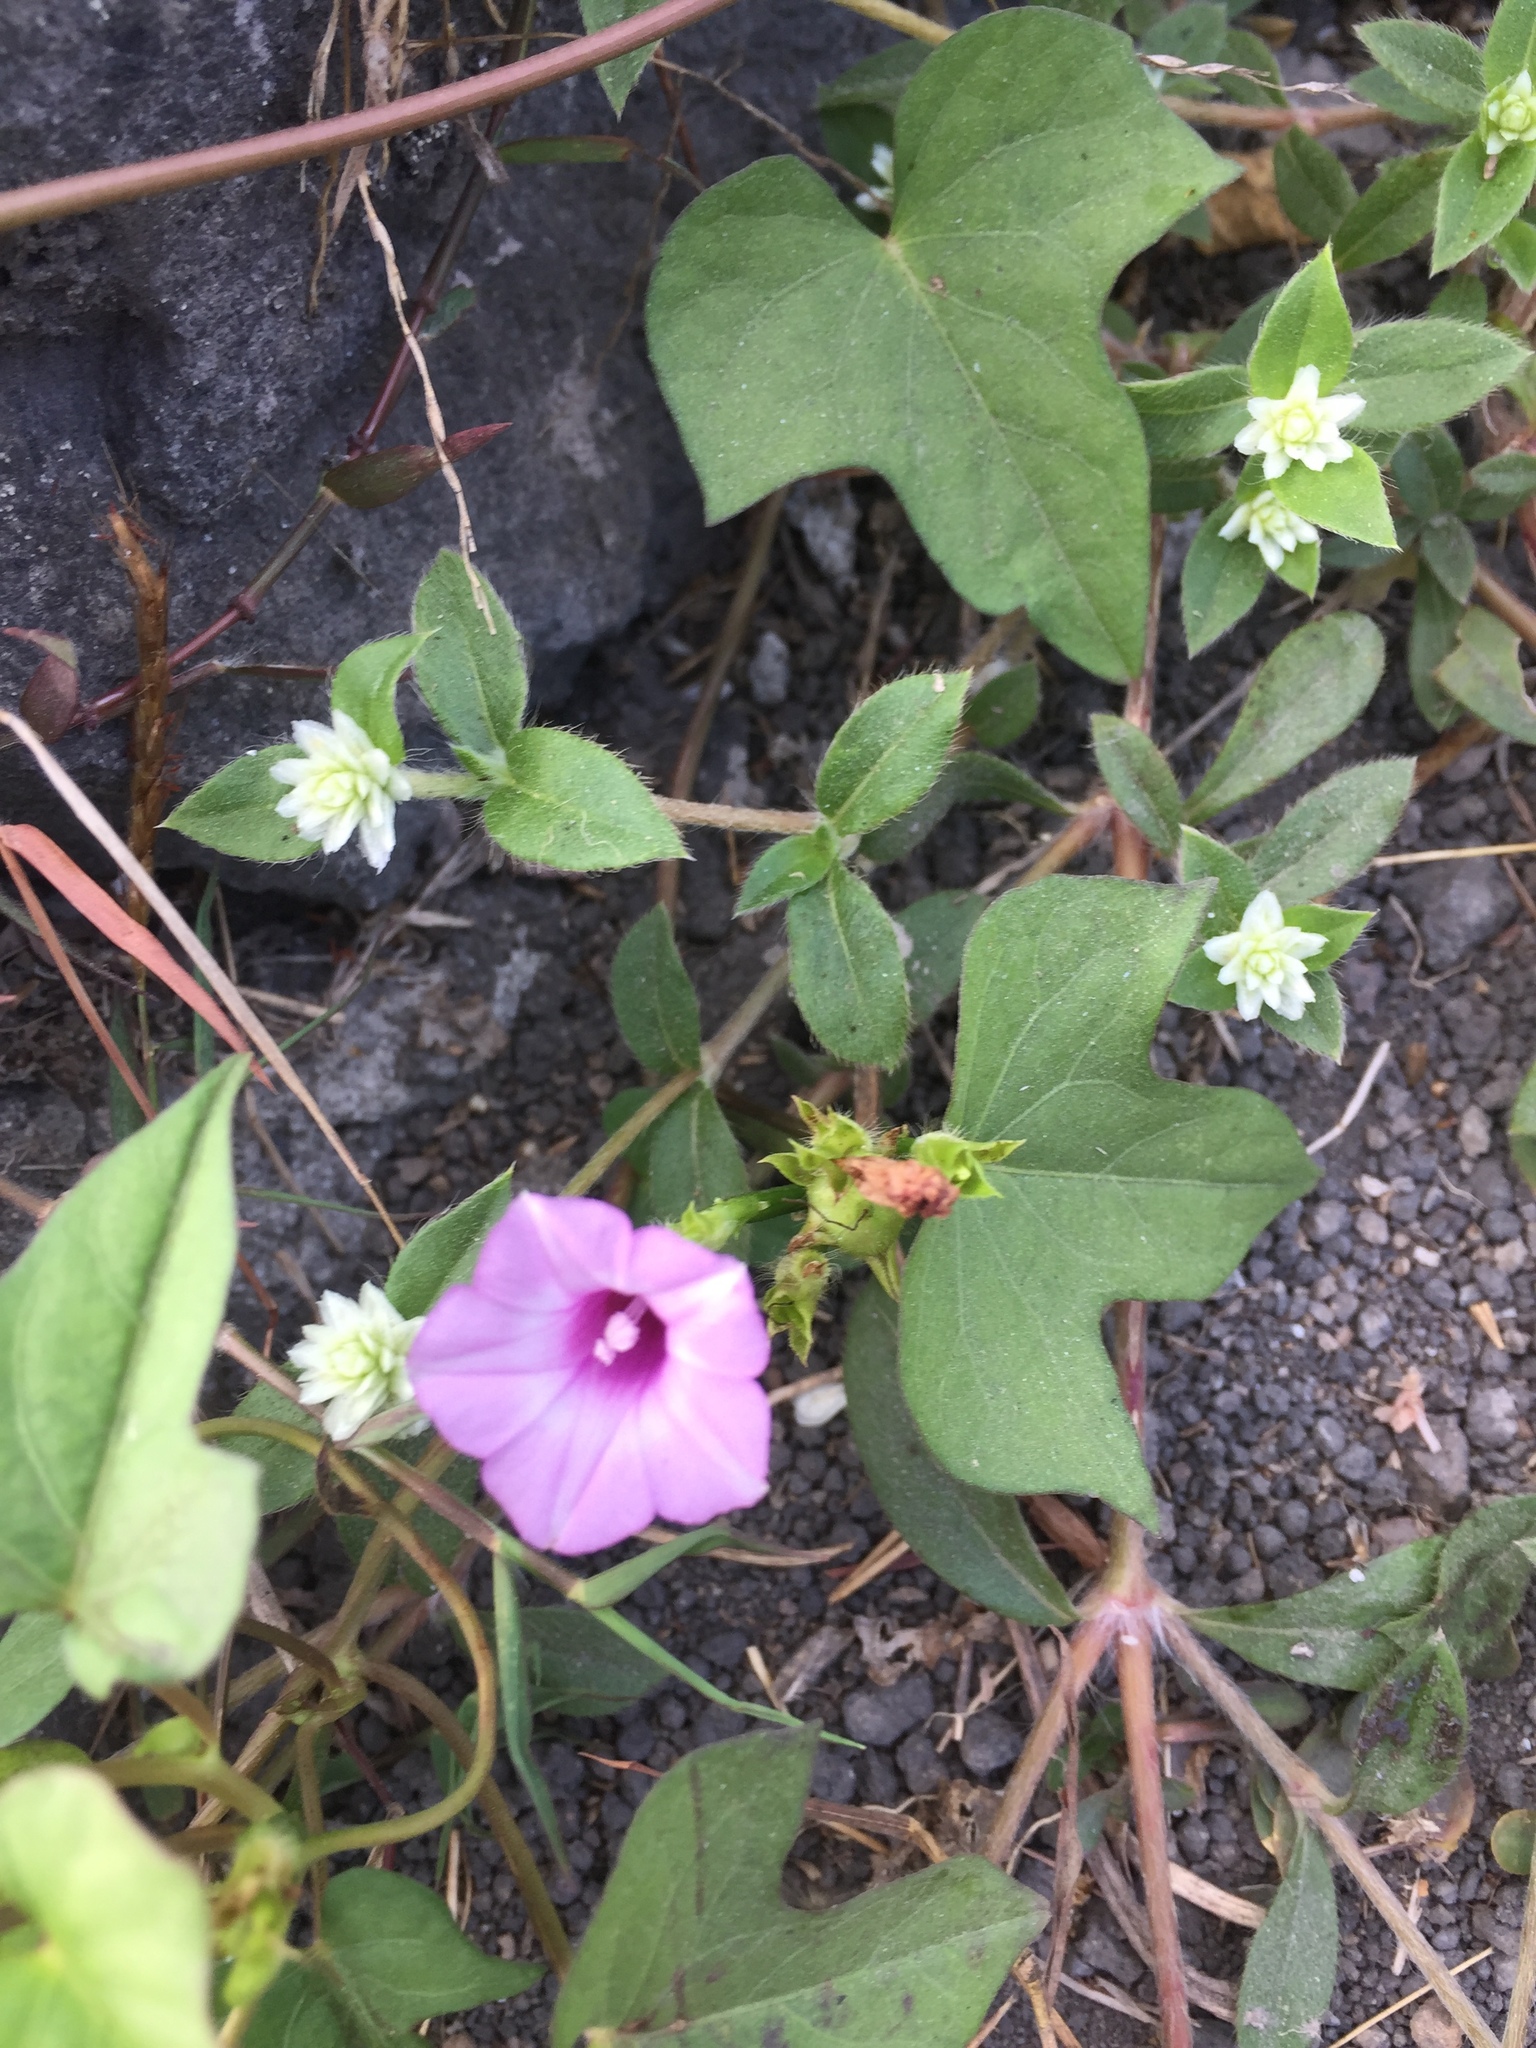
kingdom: Plantae
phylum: Tracheophyta
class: Magnoliopsida
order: Solanales
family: Convolvulaceae
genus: Ipomoea
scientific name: Ipomoea triloba
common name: Little-bell
